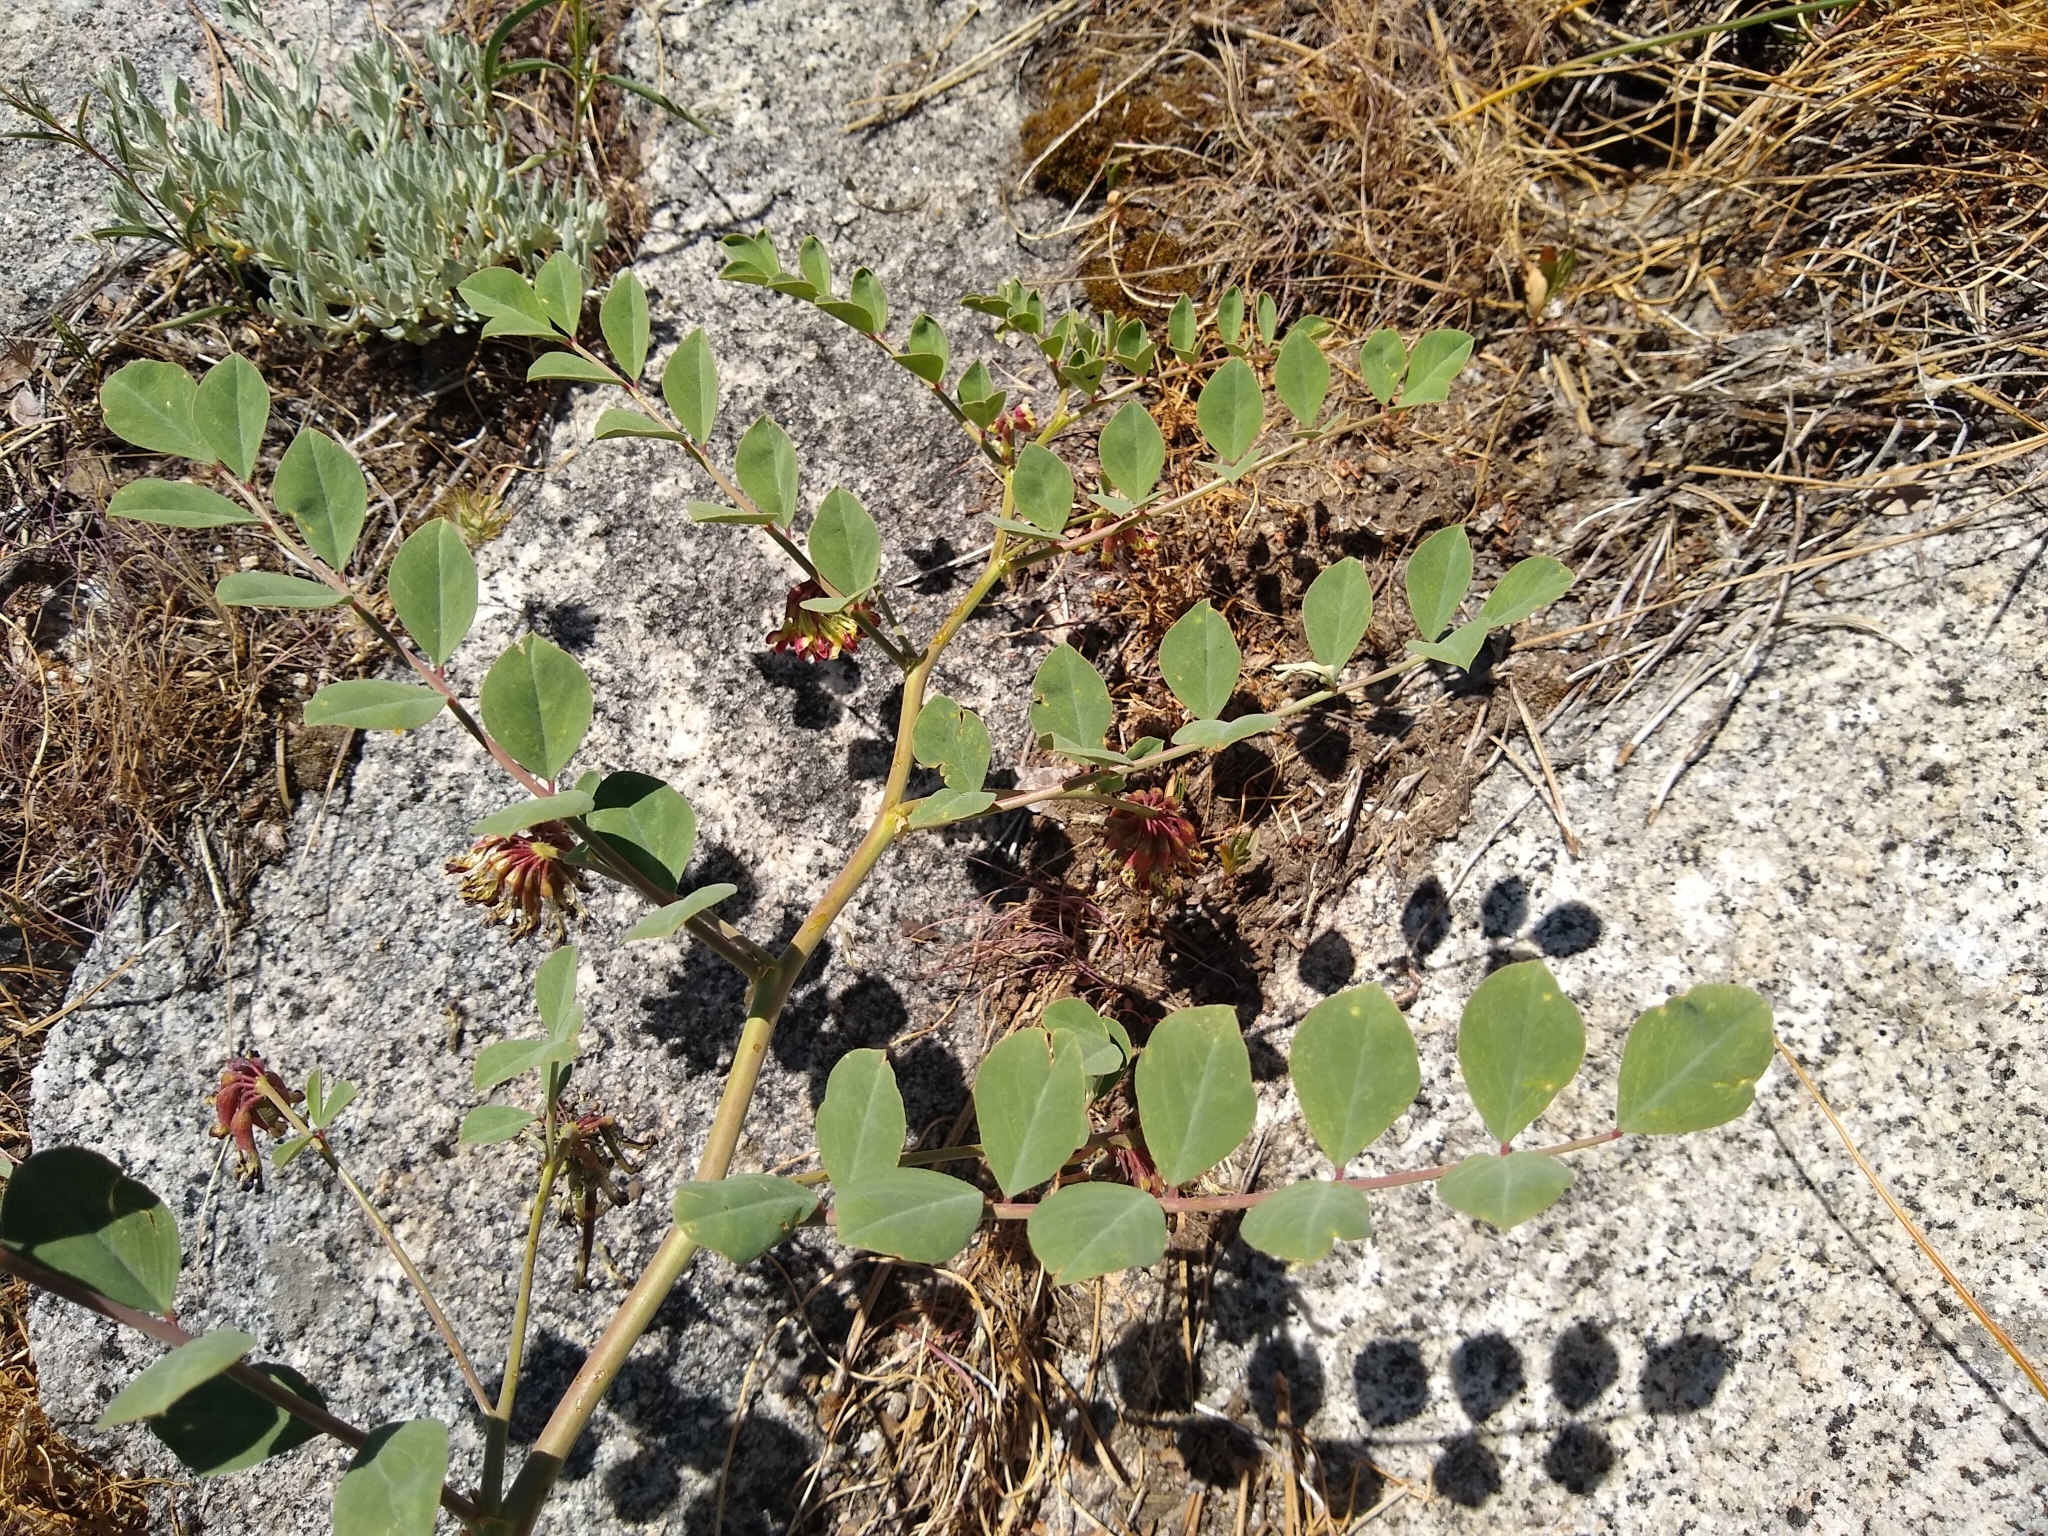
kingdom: Plantae
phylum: Tracheophyta
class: Magnoliopsida
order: Fabales
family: Fabaceae
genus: Hosackia
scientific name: Hosackia crassifolia
